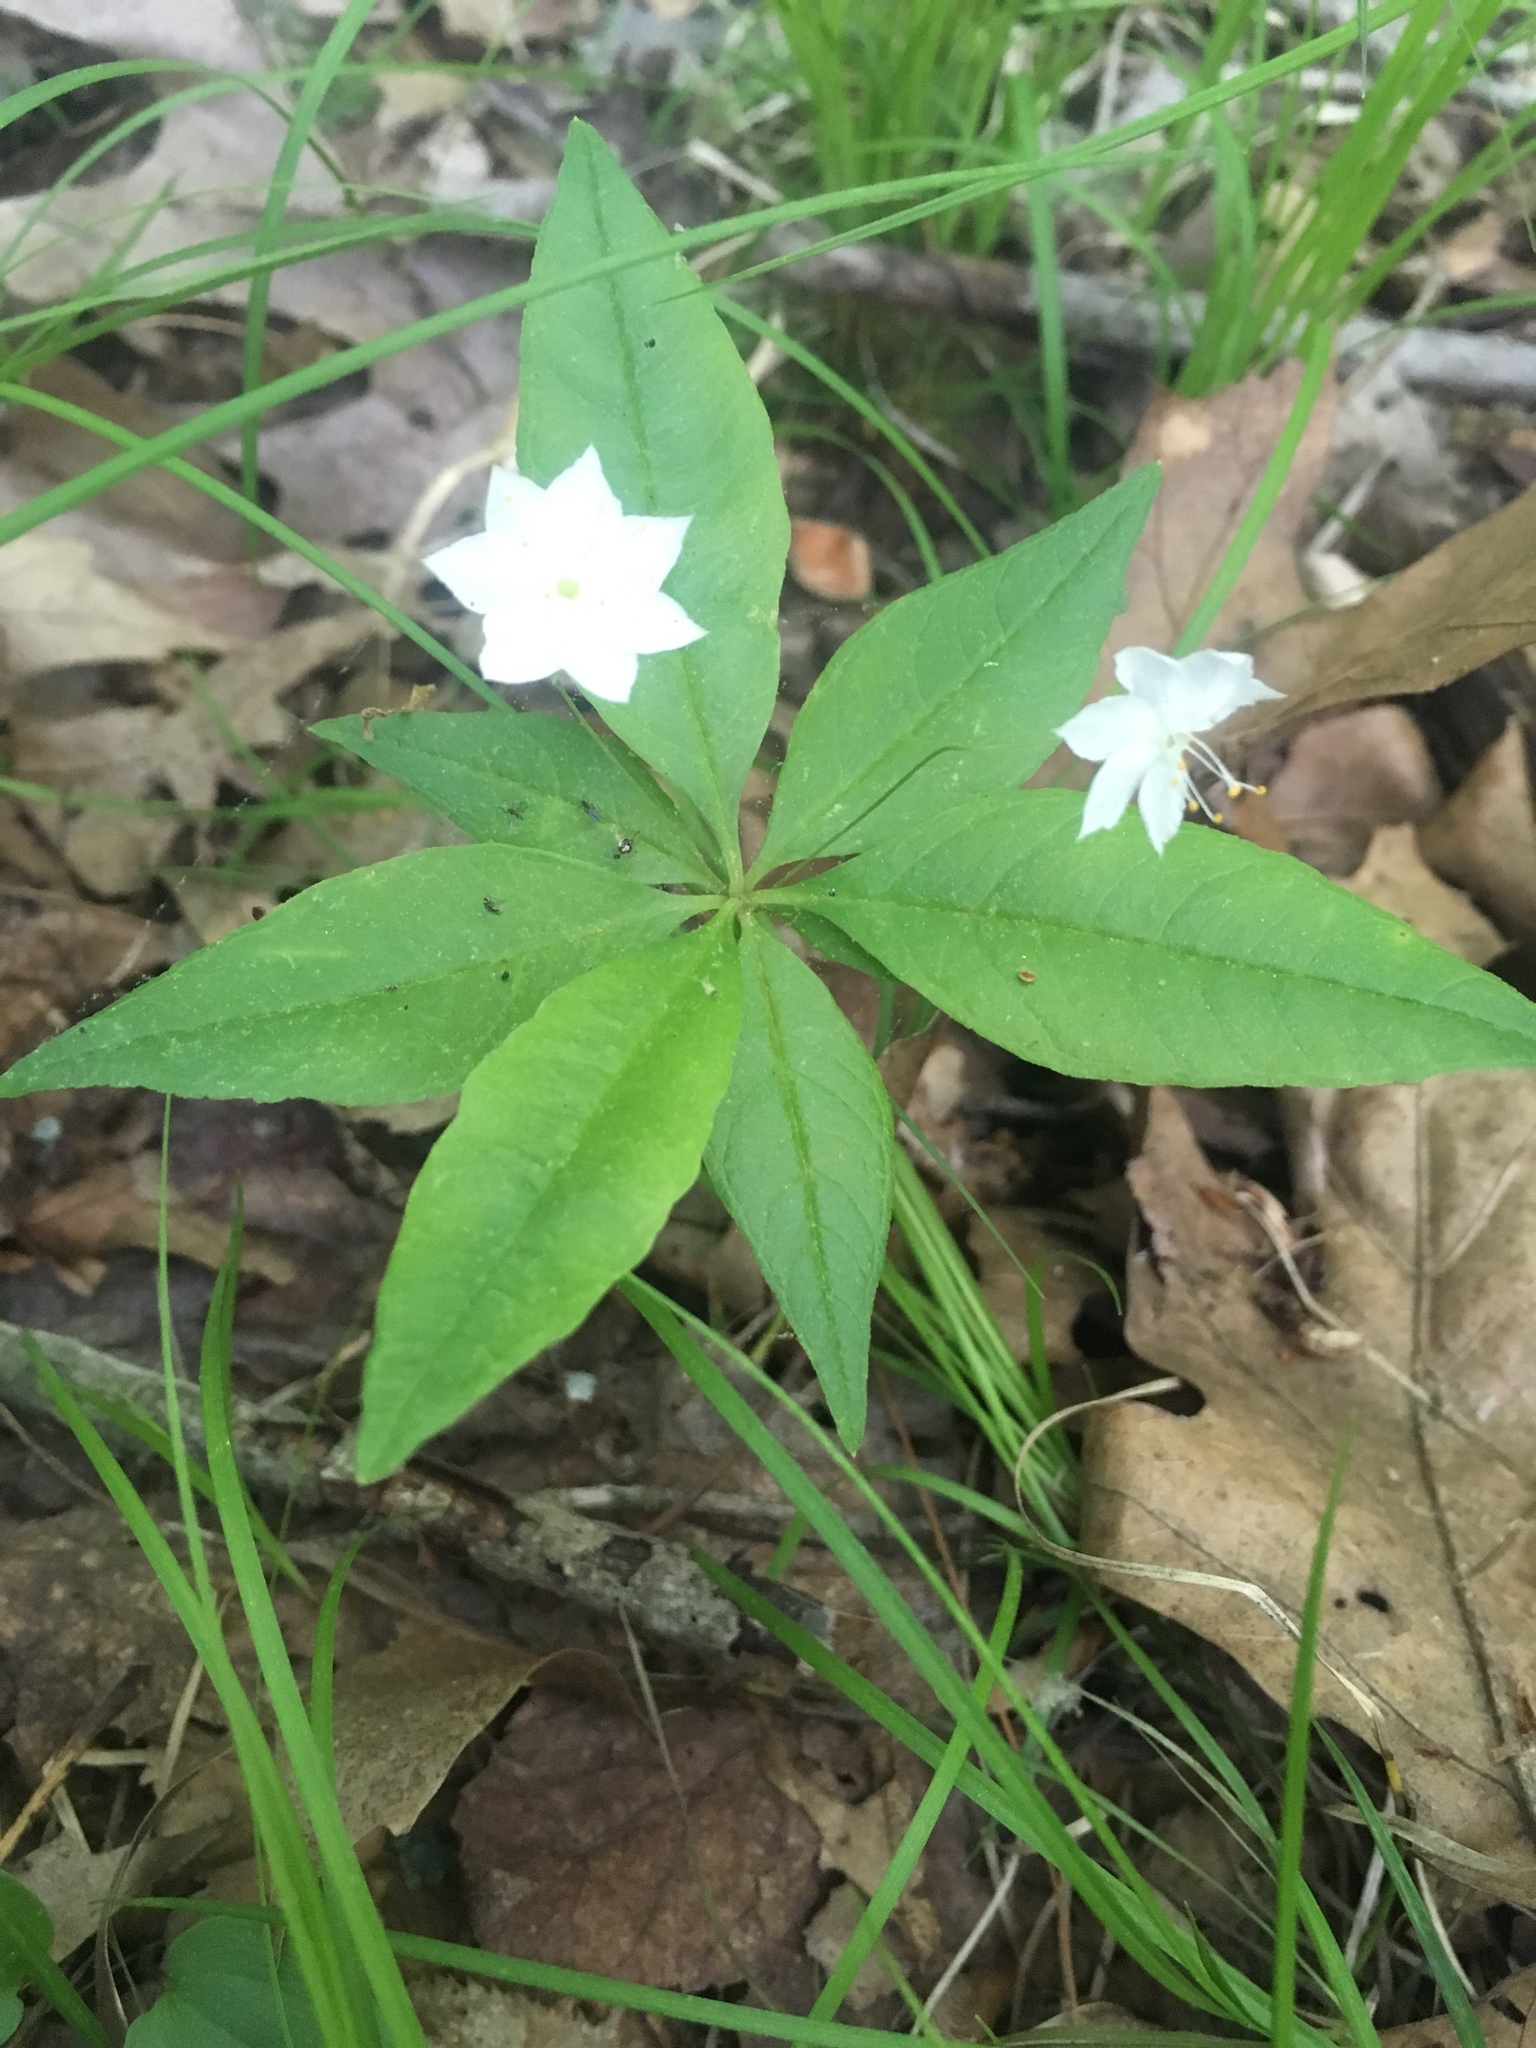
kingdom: Plantae
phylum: Tracheophyta
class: Magnoliopsida
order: Ericales
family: Primulaceae
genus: Lysimachia
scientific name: Lysimachia borealis
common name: American starflower
